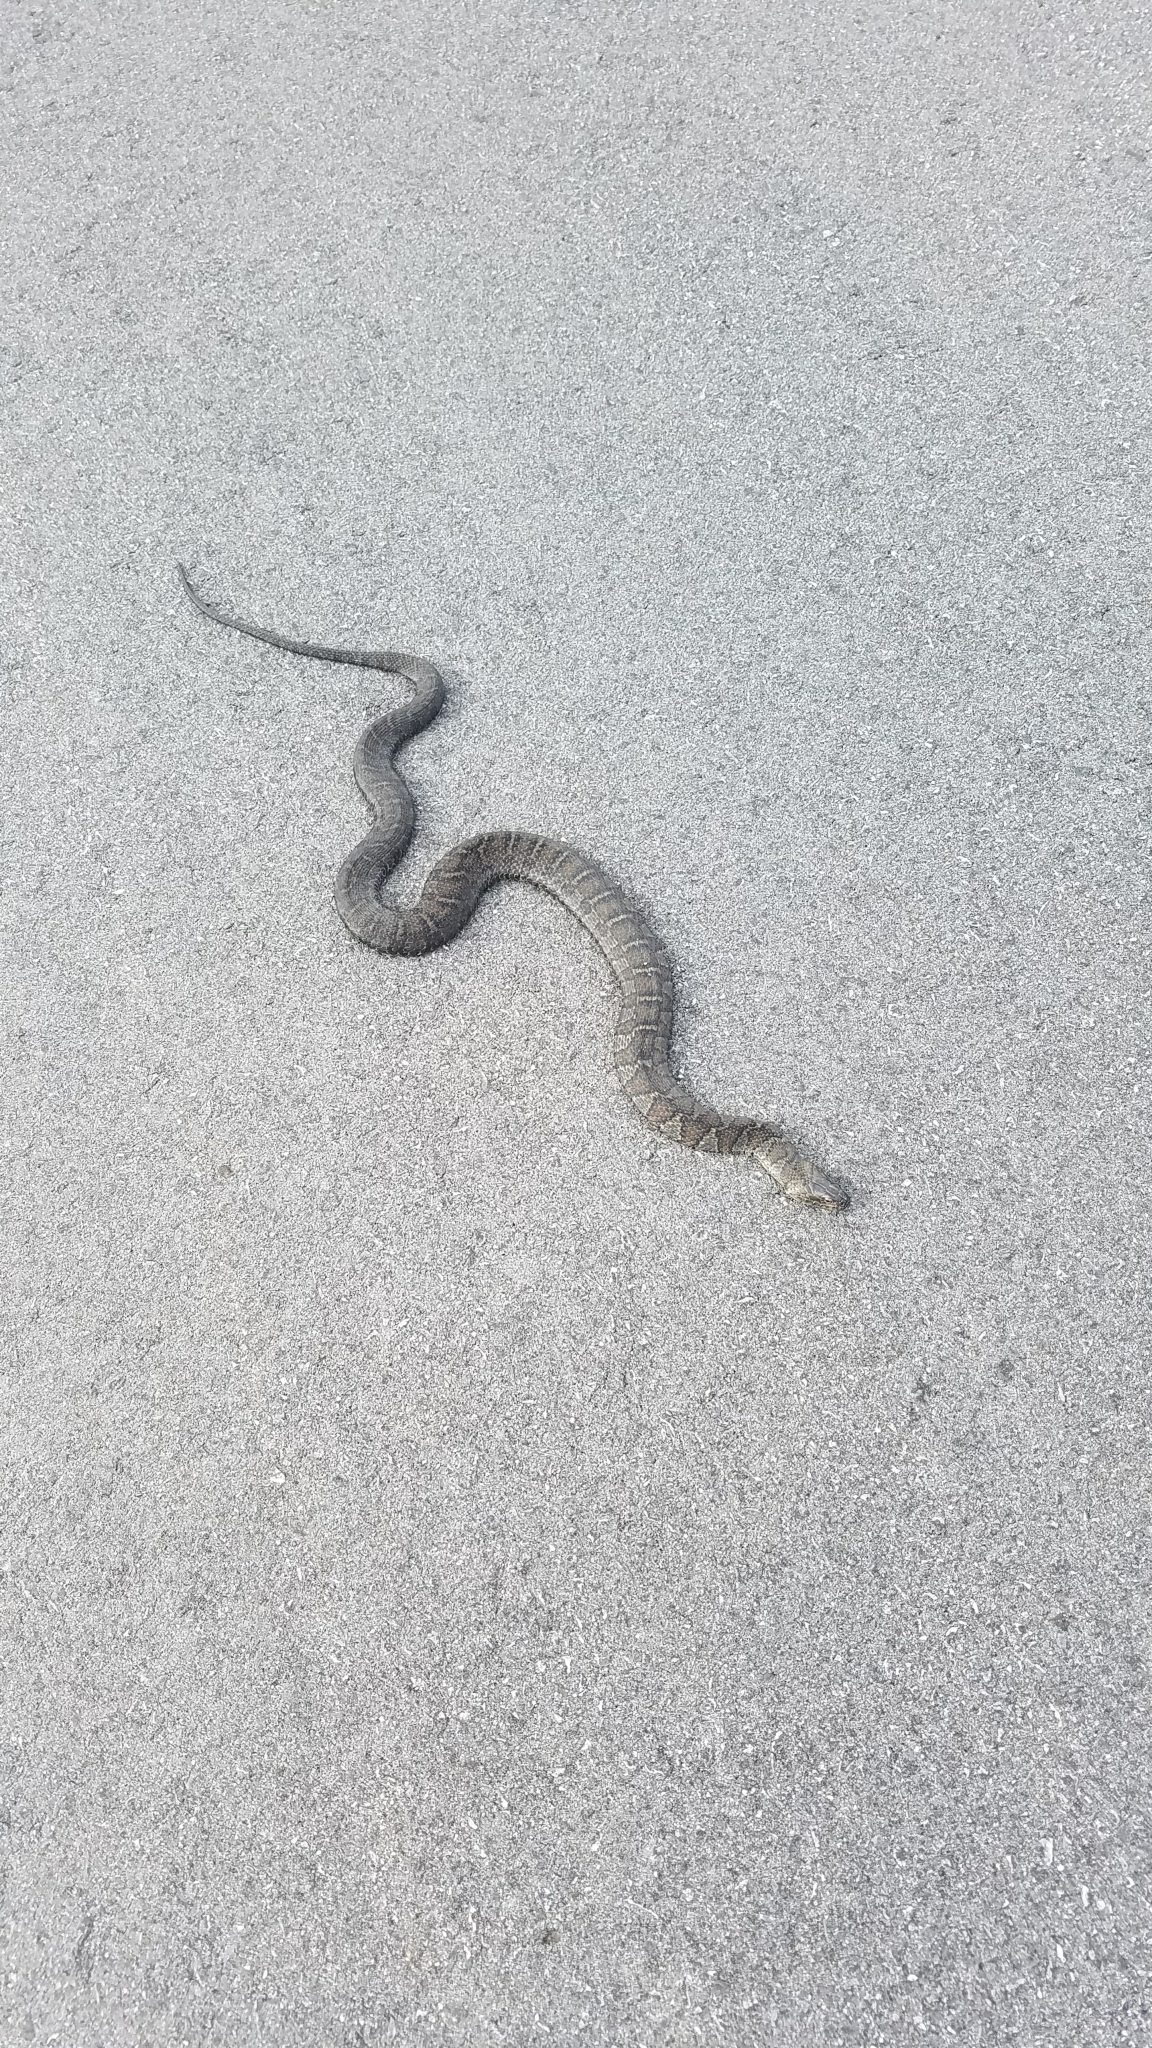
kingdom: Animalia
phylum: Chordata
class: Squamata
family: Colubridae
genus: Nerodia
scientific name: Nerodia sipedon
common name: Northern water snake
